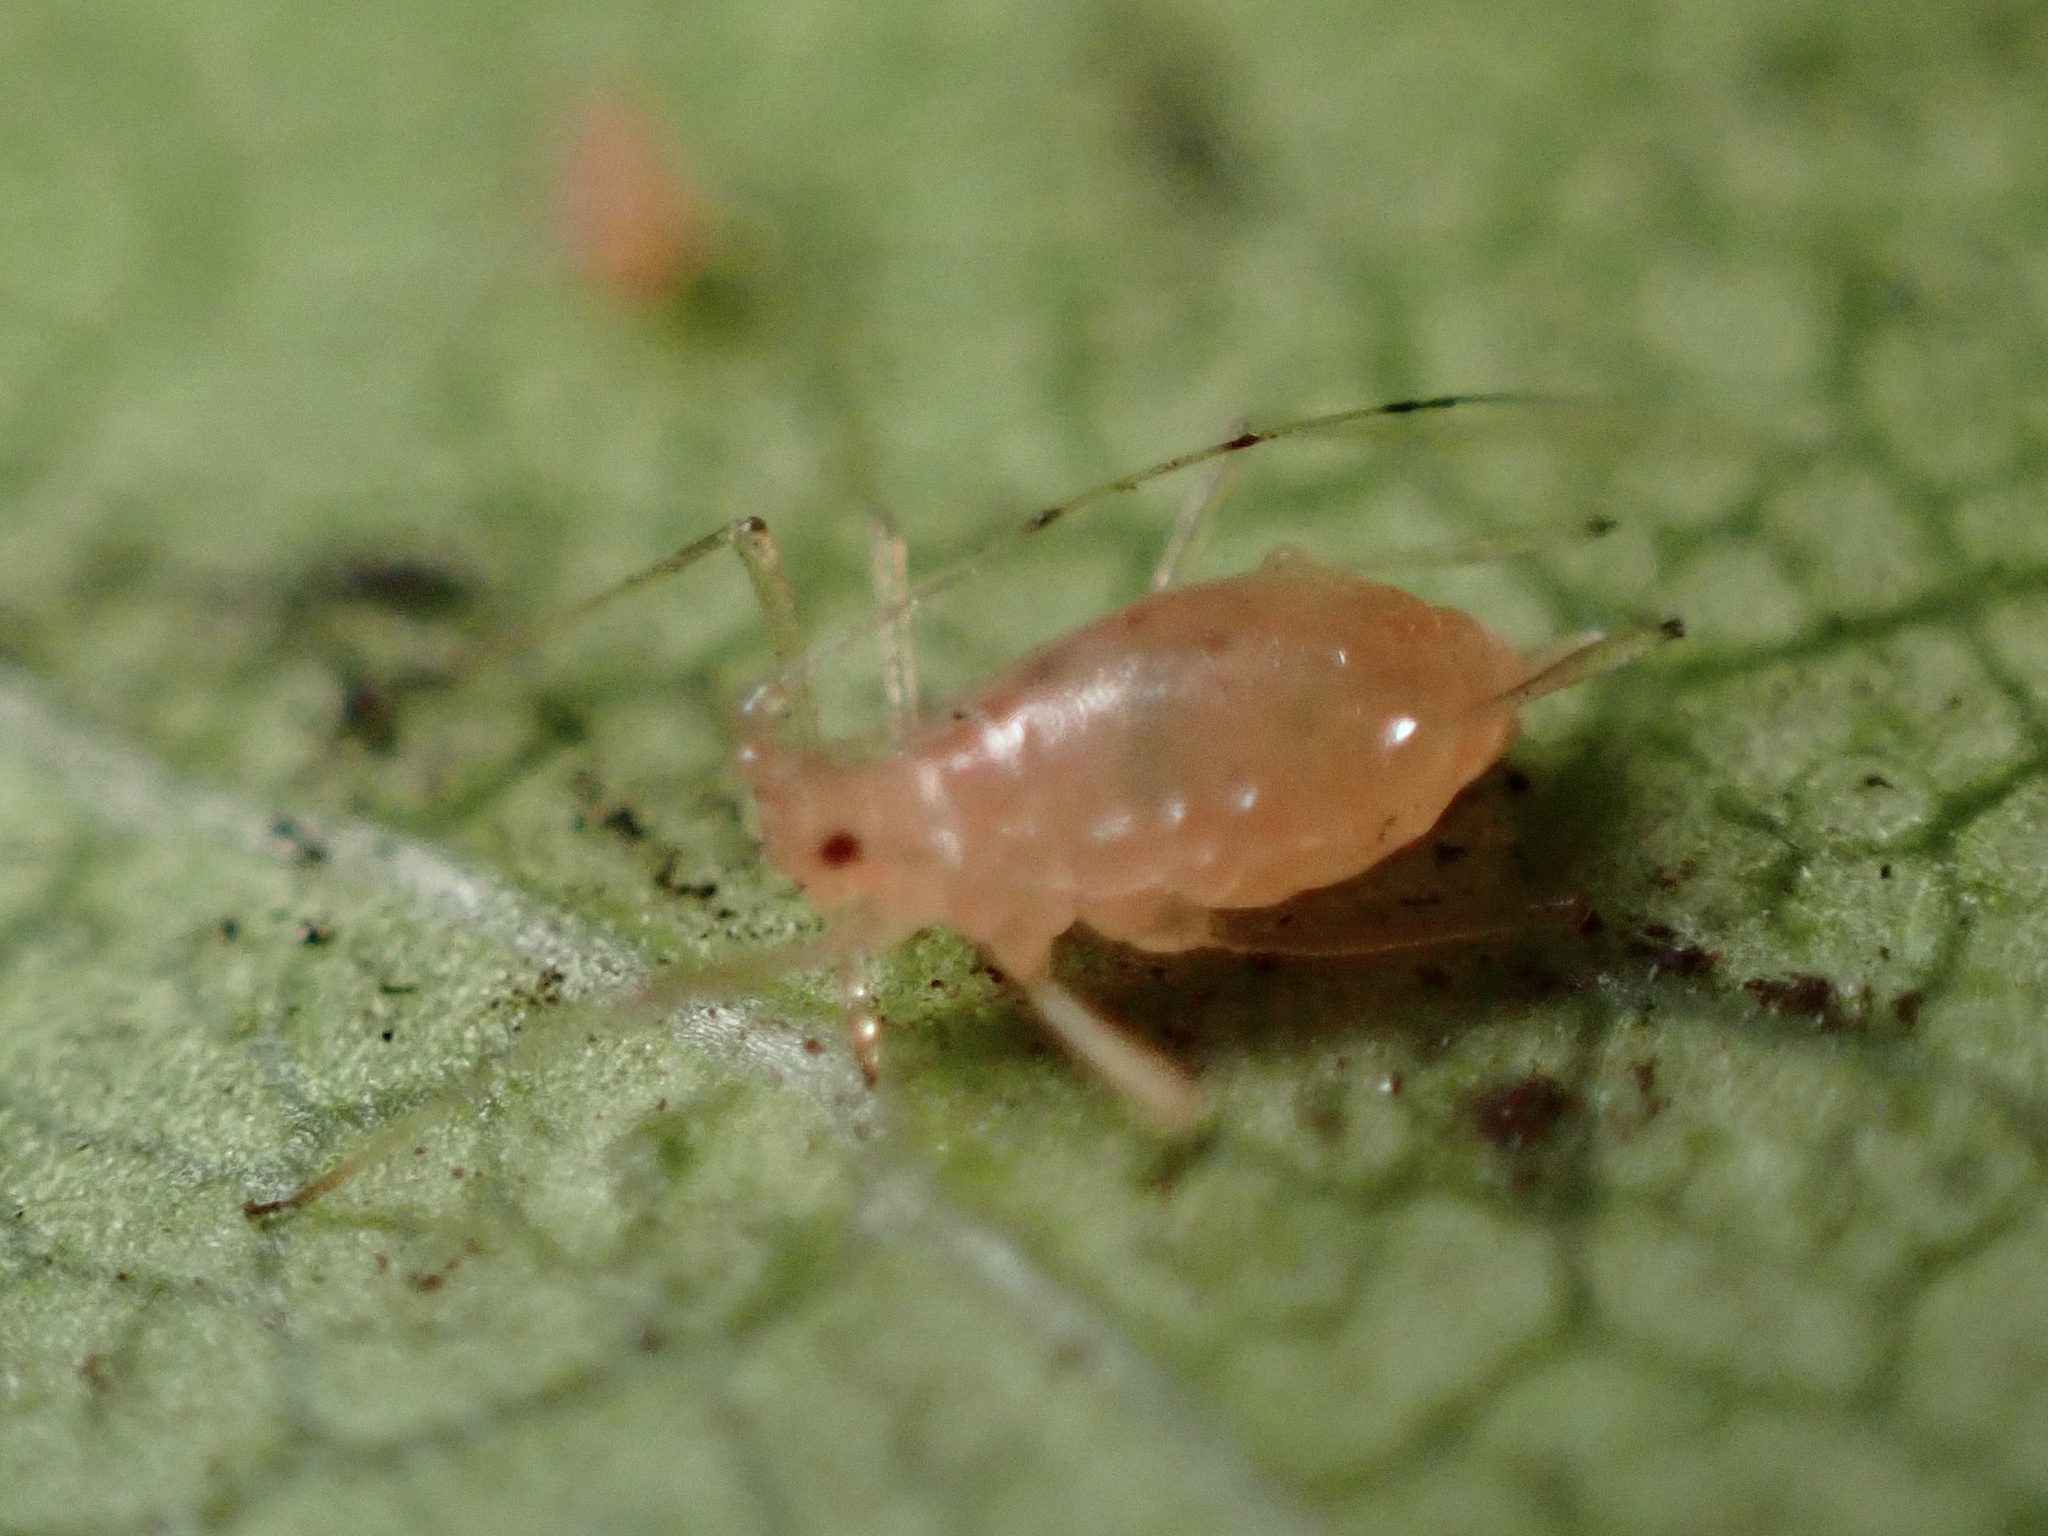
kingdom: Animalia
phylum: Arthropoda
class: Insecta
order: Hemiptera
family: Aphididae
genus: Wahlgreniella
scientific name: Wahlgreniella nervata
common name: Pale green aphid
